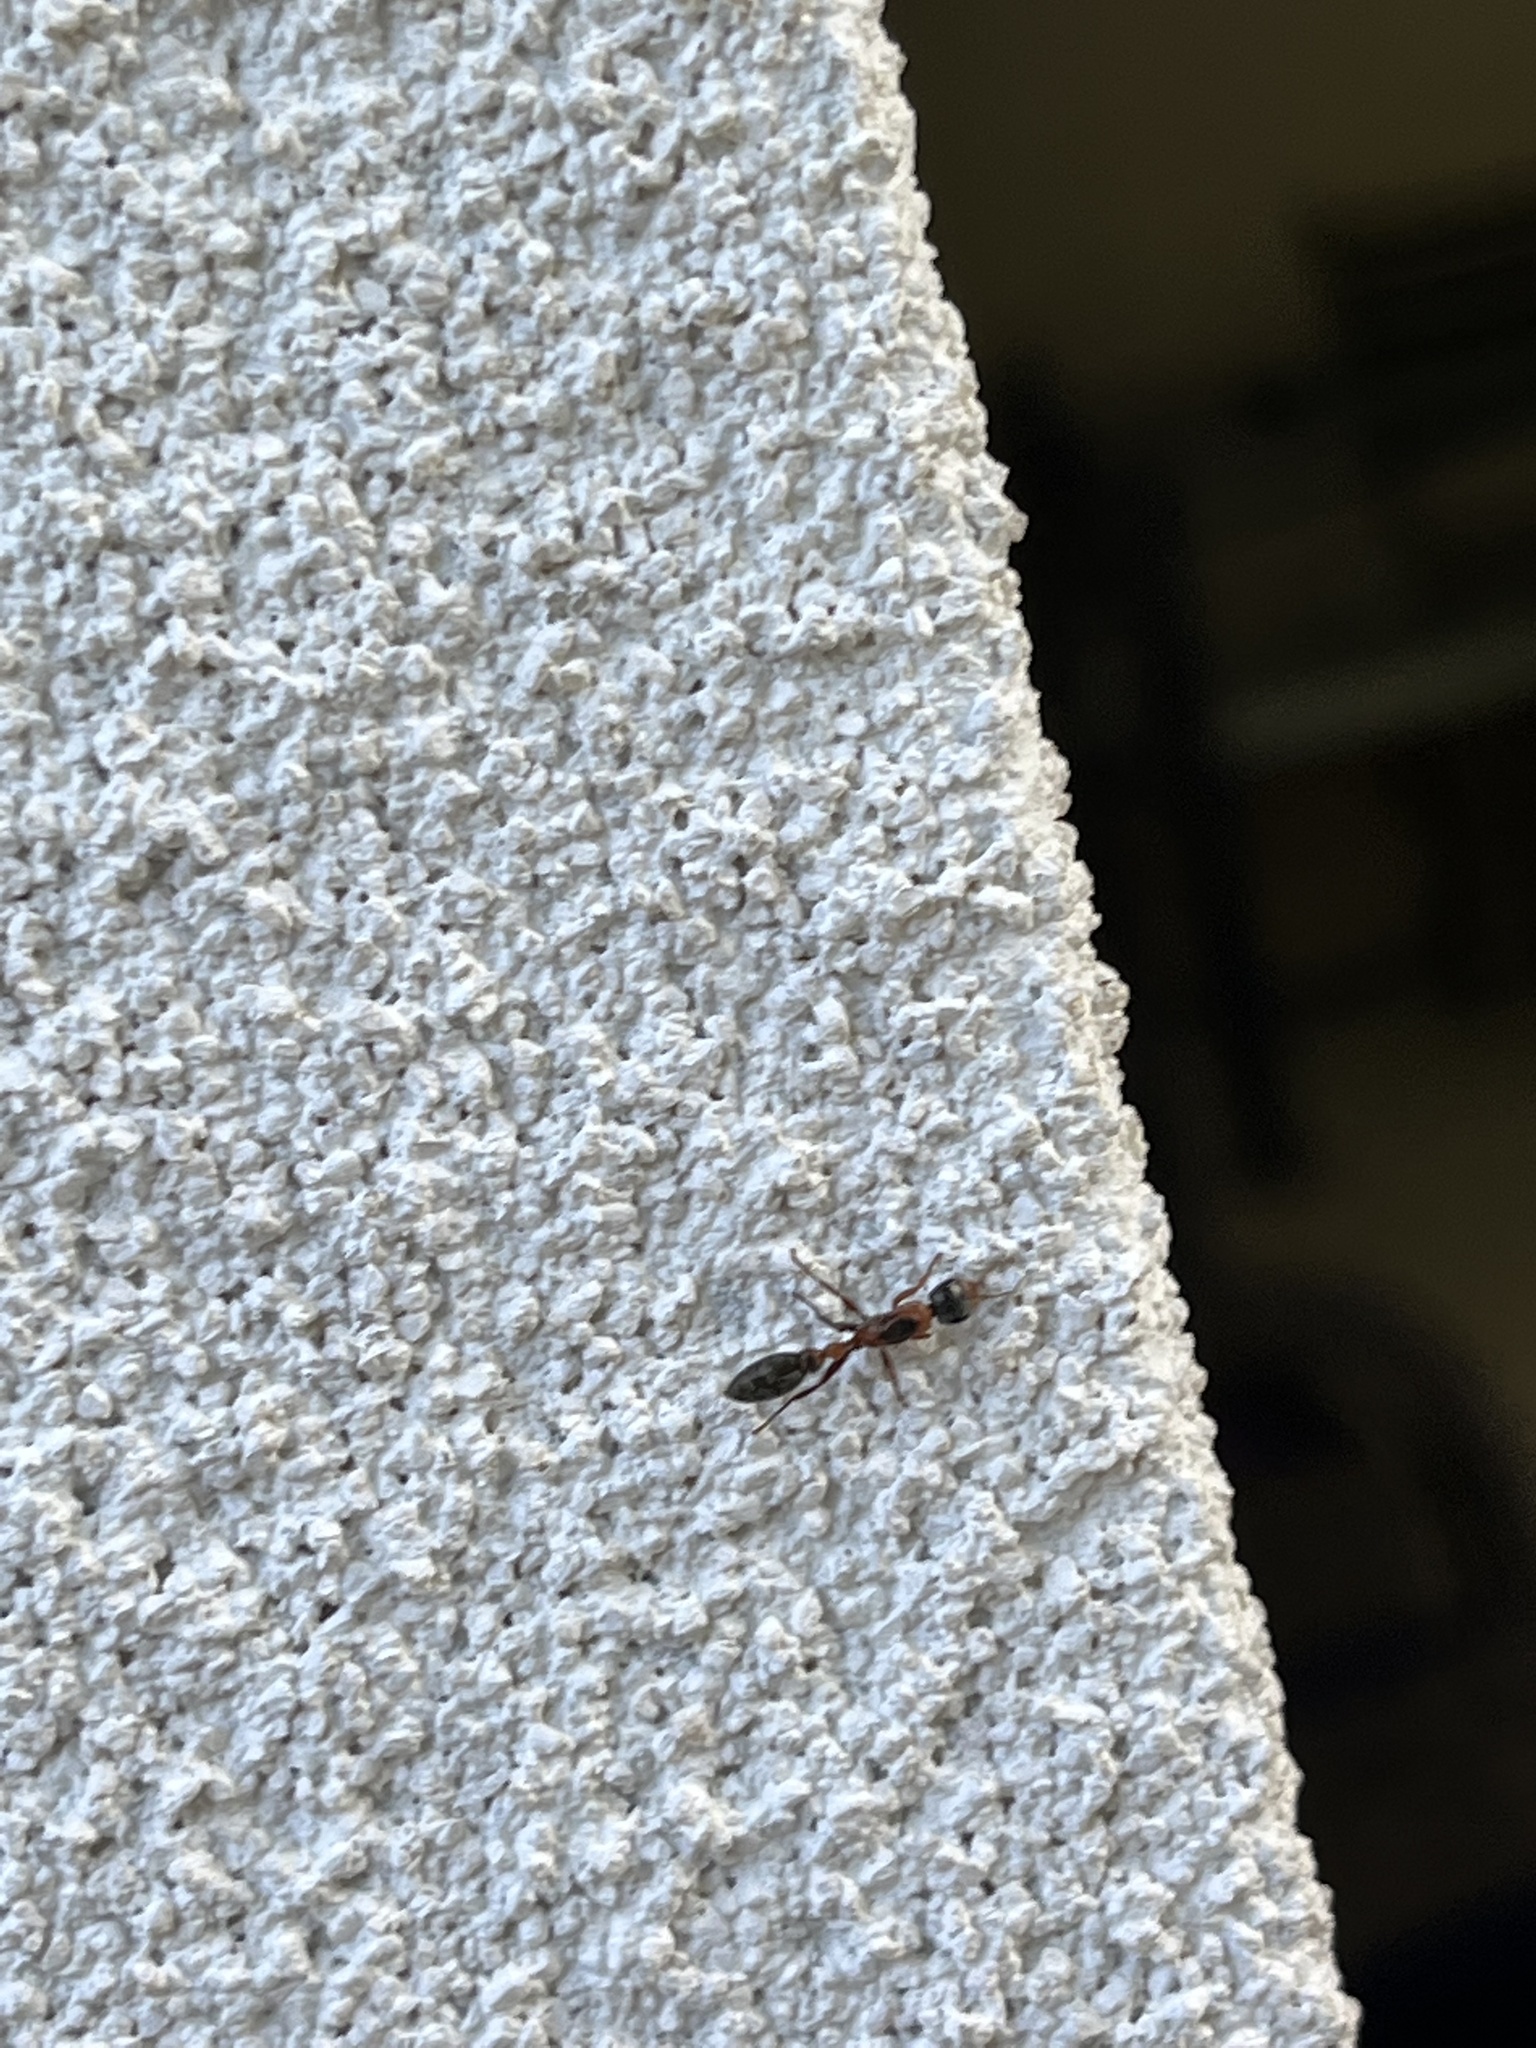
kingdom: Animalia
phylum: Arthropoda
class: Insecta
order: Hymenoptera
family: Formicidae
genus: Pseudomyrmex
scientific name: Pseudomyrmex gracilis
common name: Graceful twig ant
